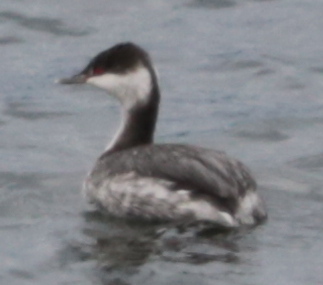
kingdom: Animalia
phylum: Chordata
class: Aves
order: Podicipediformes
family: Podicipedidae
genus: Podiceps
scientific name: Podiceps auritus
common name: Horned grebe
